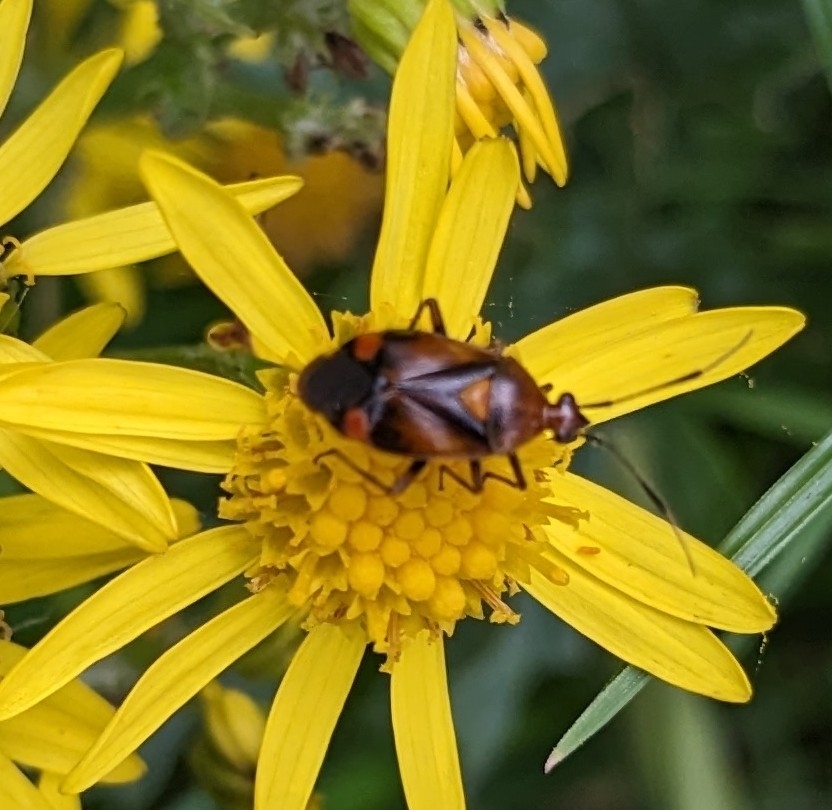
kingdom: Animalia
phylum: Arthropoda
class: Insecta
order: Hemiptera
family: Miridae
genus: Deraeocoris
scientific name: Deraeocoris ruber
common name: Plant bug
